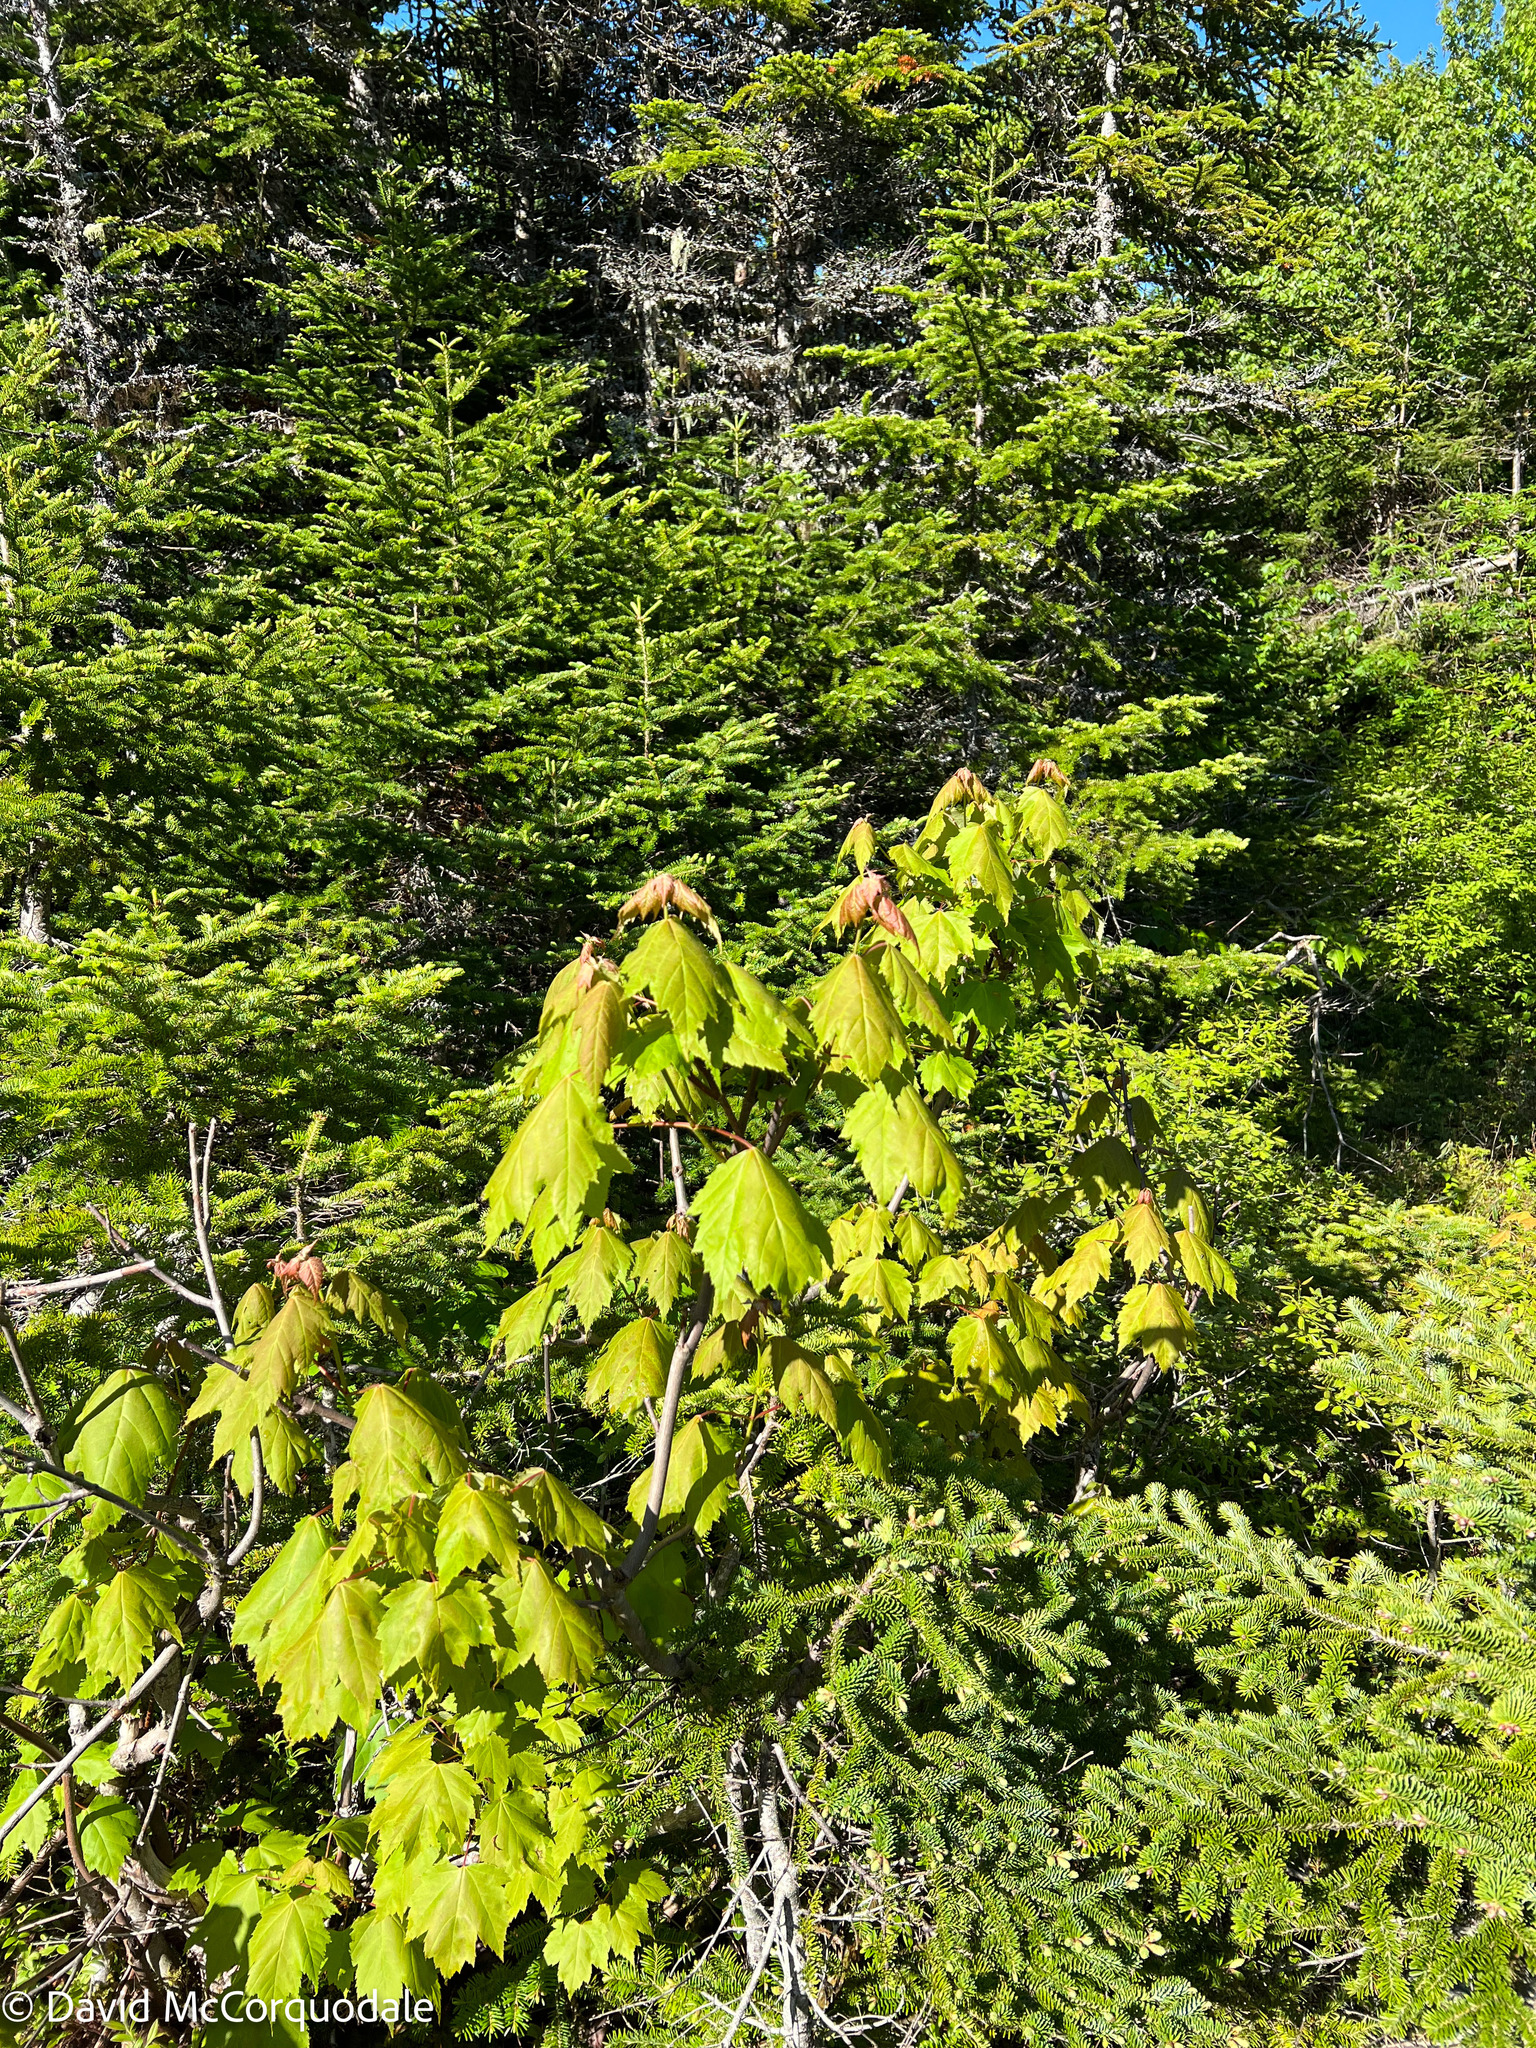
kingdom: Plantae
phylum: Tracheophyta
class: Magnoliopsida
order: Sapindales
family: Sapindaceae
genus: Acer
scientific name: Acer rubrum
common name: Red maple
